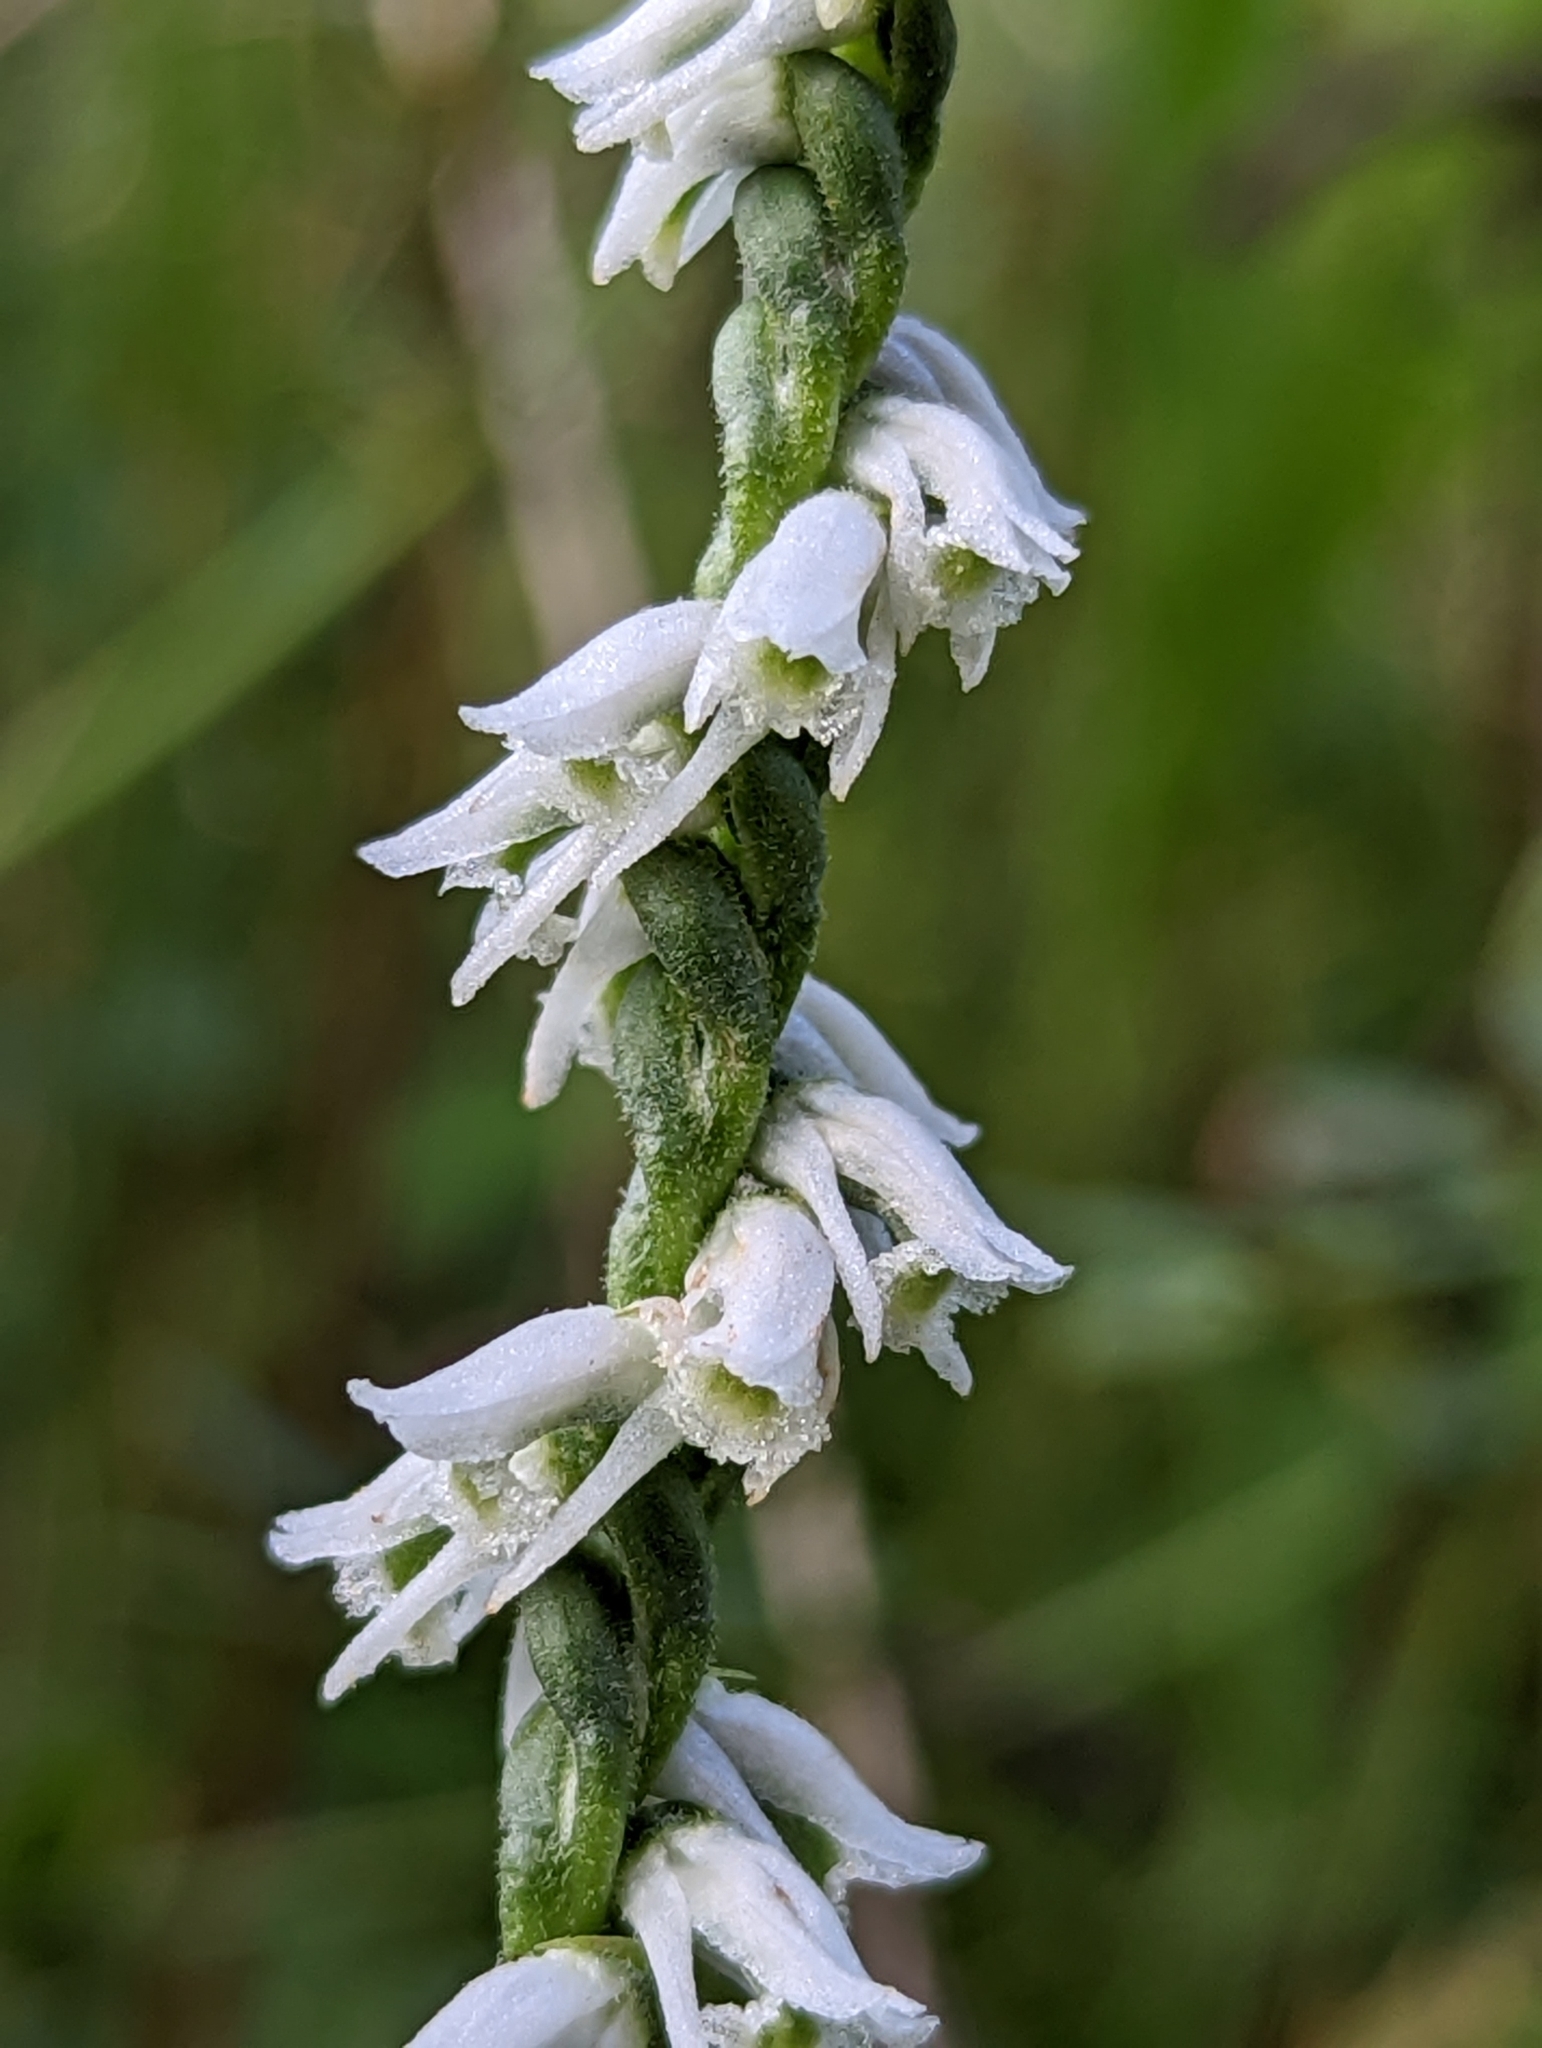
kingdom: Plantae
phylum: Tracheophyta
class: Liliopsida
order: Asparagales
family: Orchidaceae
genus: Spiranthes
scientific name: Spiranthes lacera
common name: Northern slender ladies'-tresses
